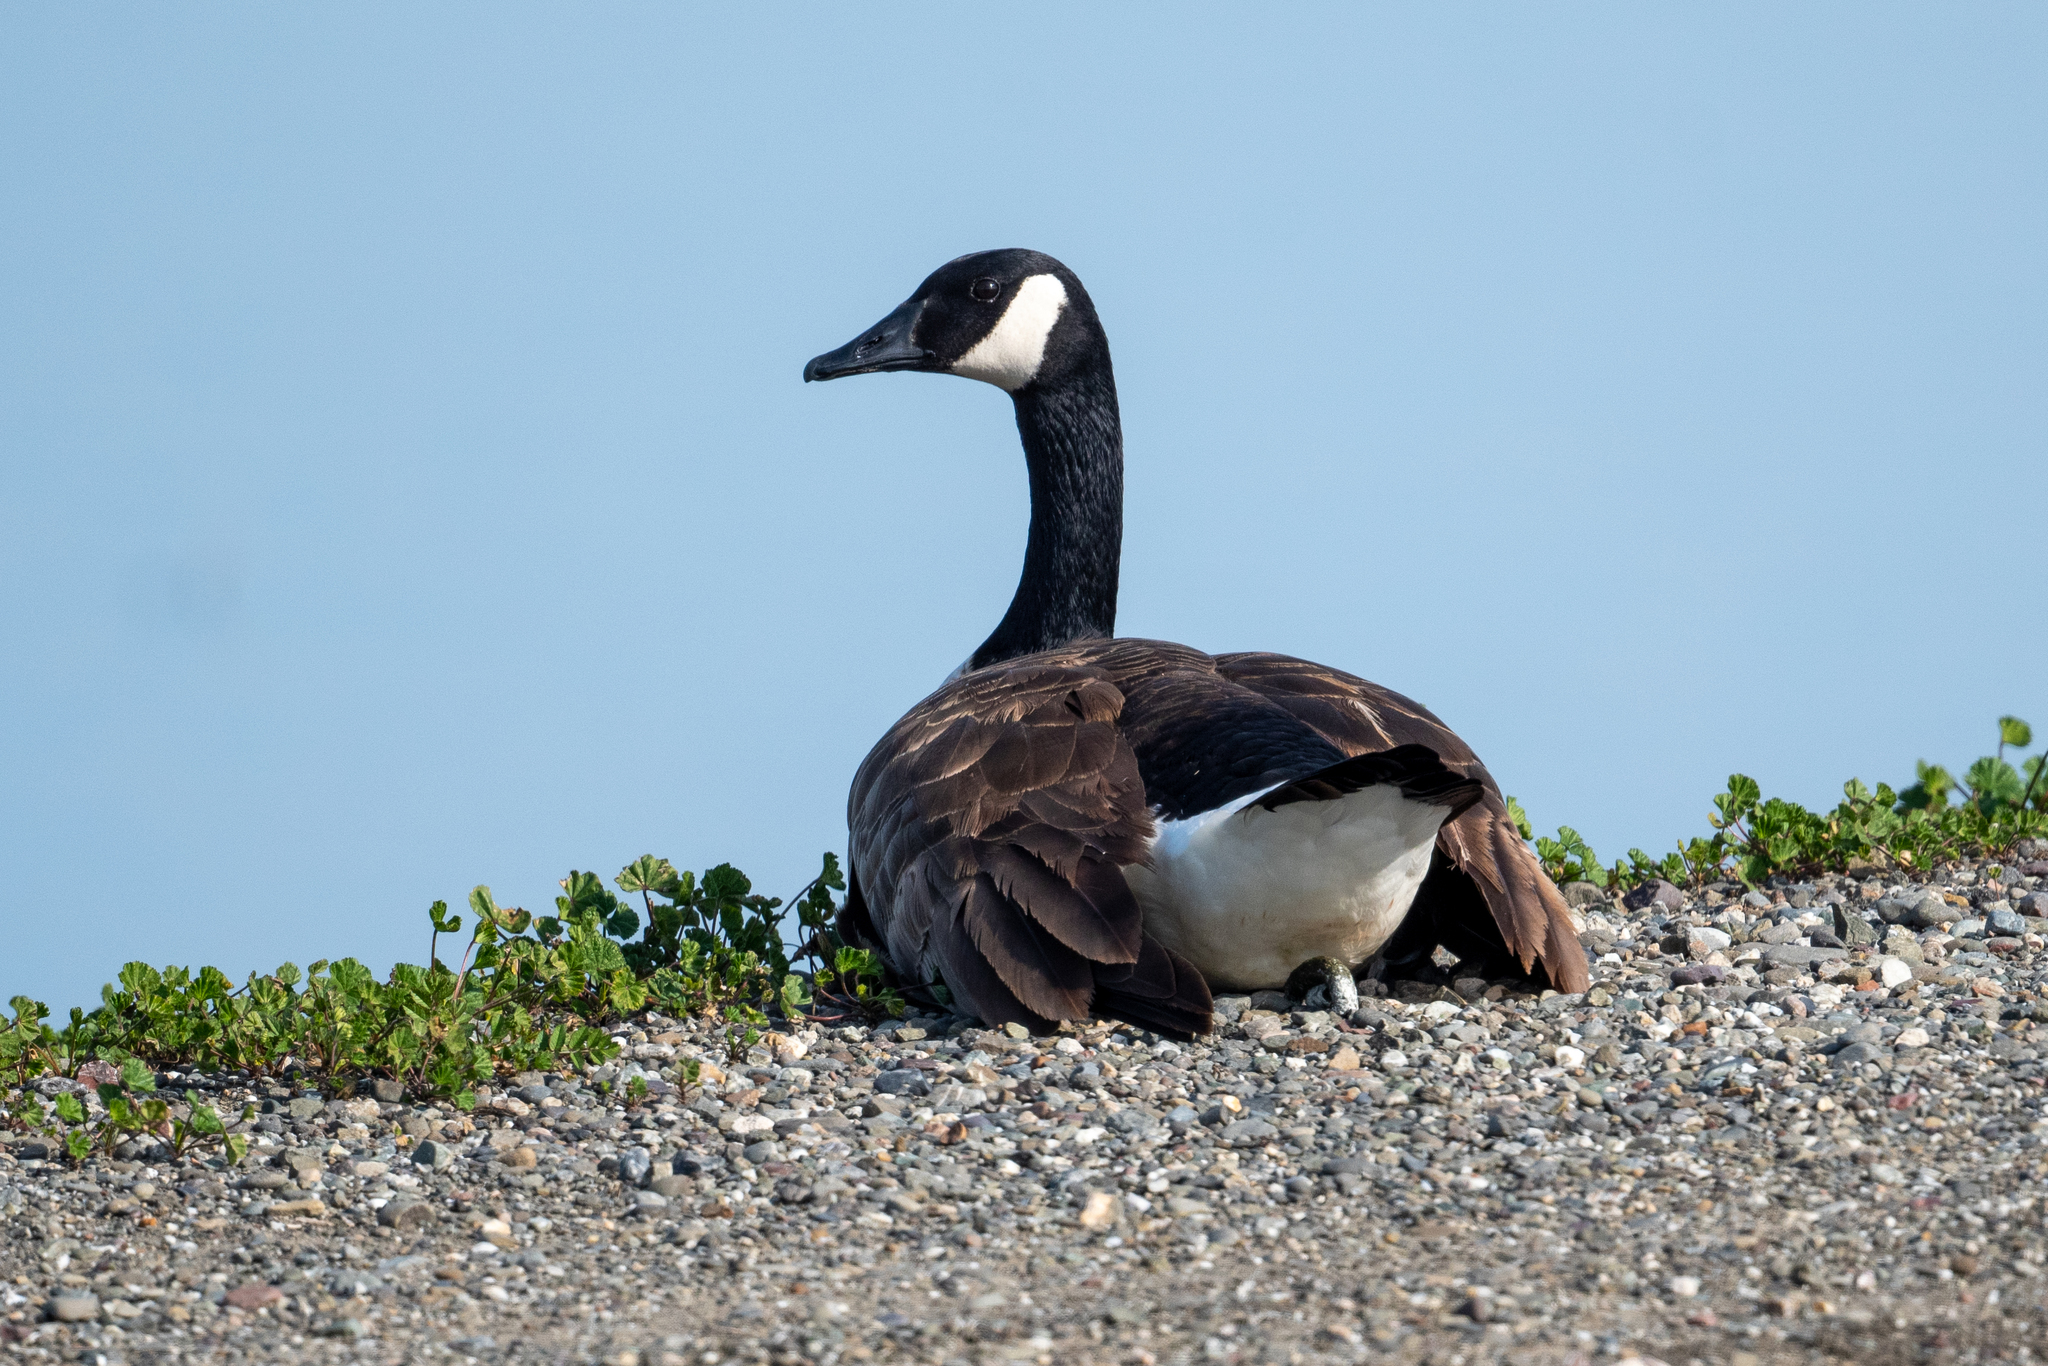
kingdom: Animalia
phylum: Chordata
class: Aves
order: Anseriformes
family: Anatidae
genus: Branta
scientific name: Branta canadensis
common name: Canada goose
